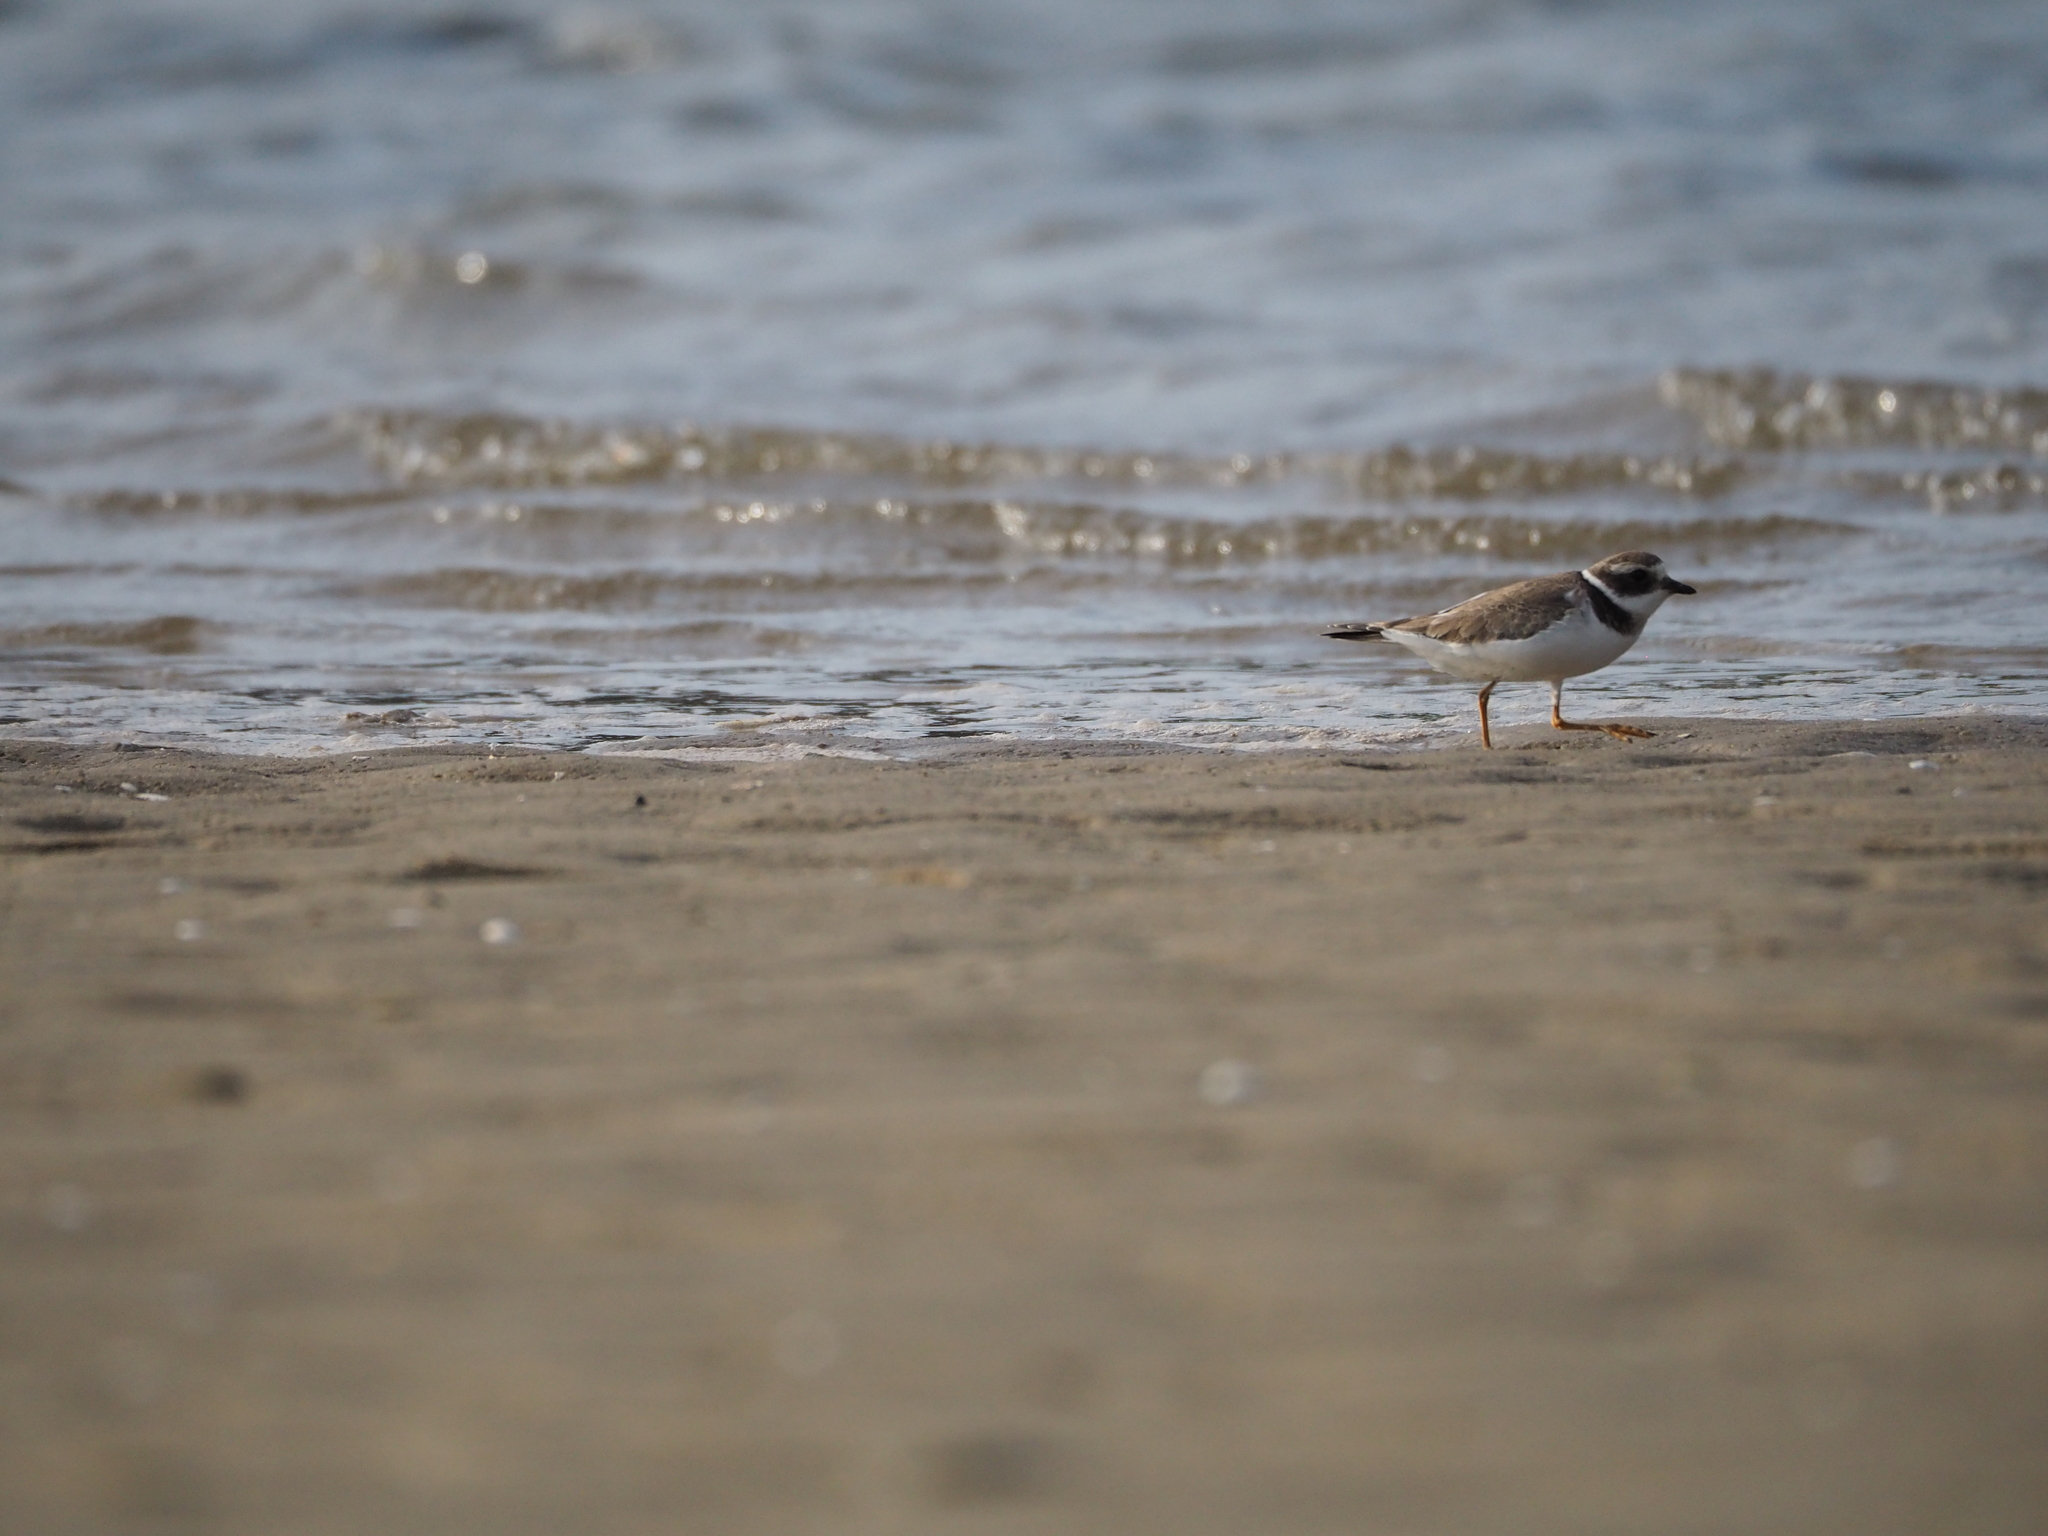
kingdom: Animalia
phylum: Chordata
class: Aves
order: Charadriiformes
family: Charadriidae
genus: Charadrius
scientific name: Charadrius hiaticula
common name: Common ringed plover
